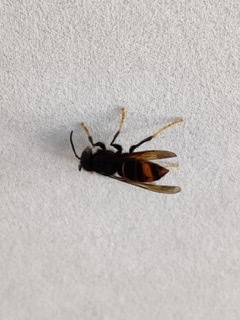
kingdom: Animalia
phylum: Arthropoda
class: Insecta
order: Hymenoptera
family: Vespidae
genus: Vespa
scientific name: Vespa velutina
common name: Asian hornet
